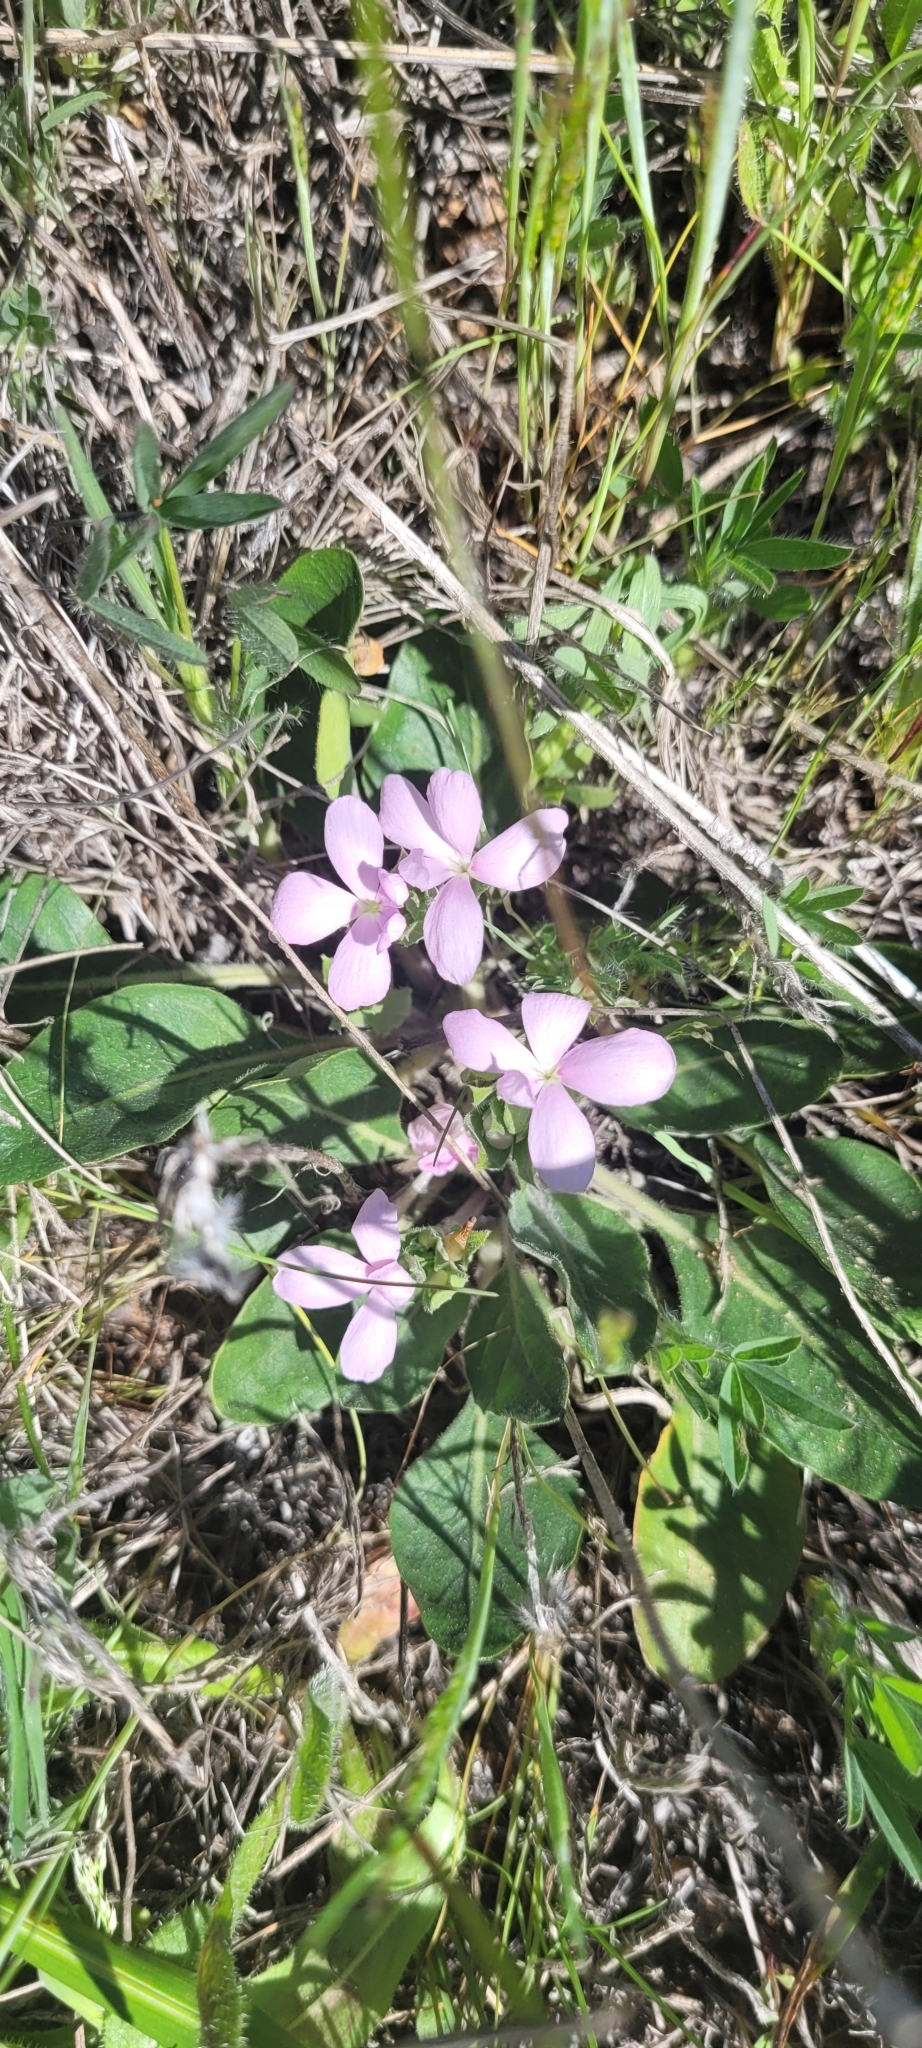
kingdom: Plantae
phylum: Tracheophyta
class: Magnoliopsida
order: Lamiales
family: Acanthaceae
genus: Stenandrium
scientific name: Stenandrium dulce
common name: Pinklet
